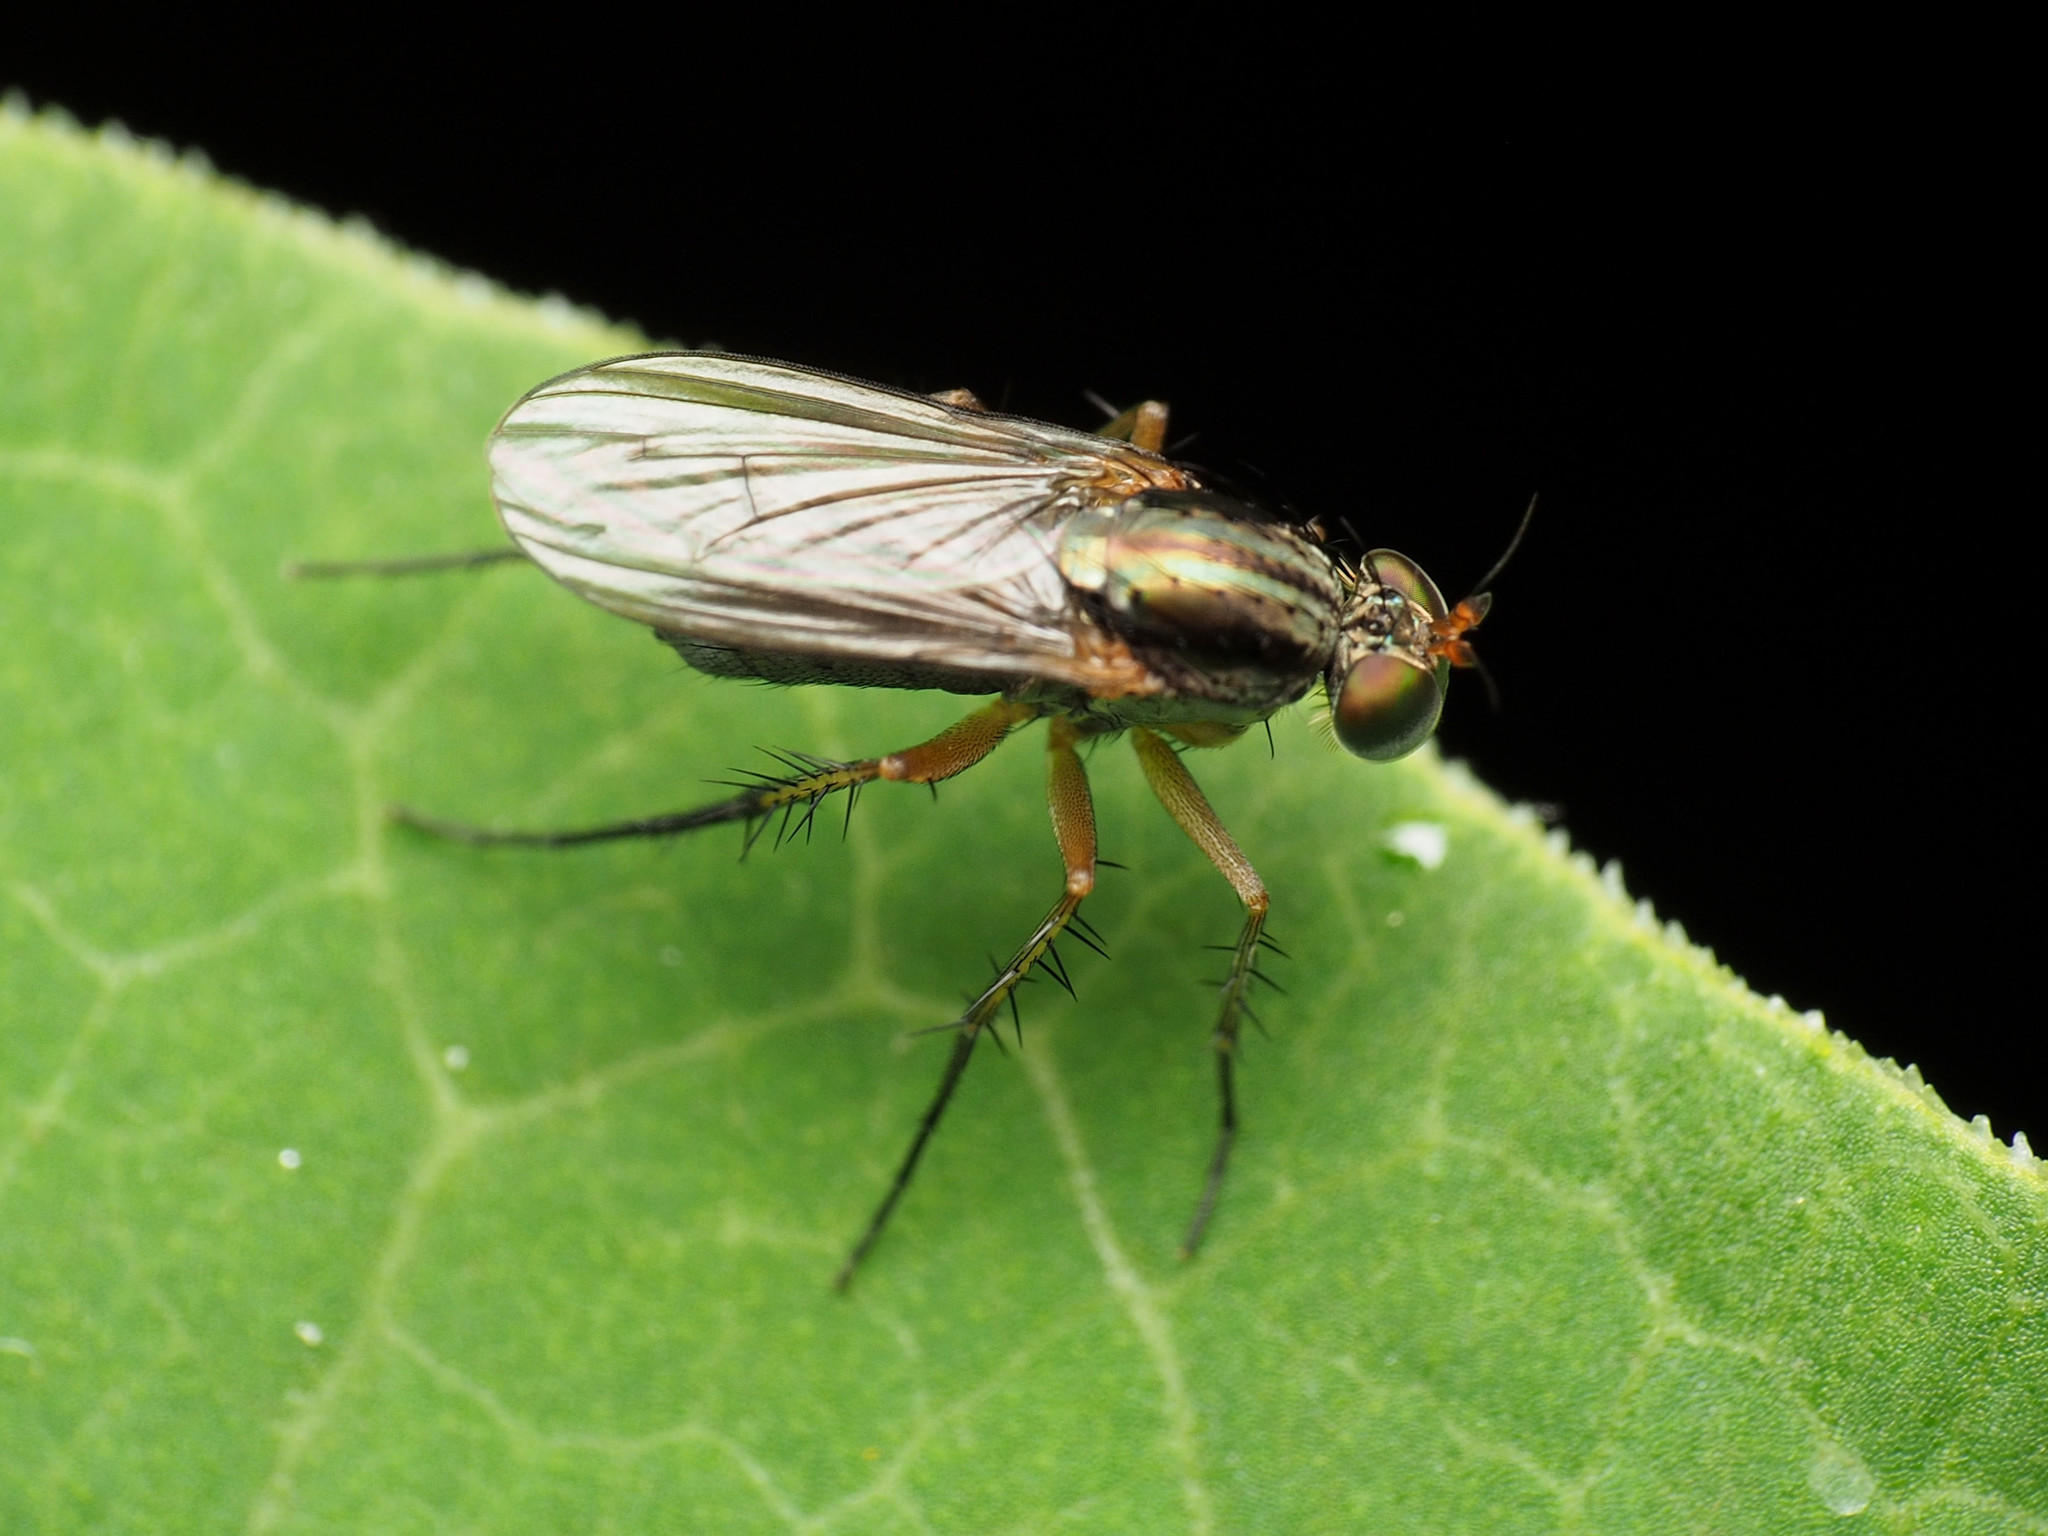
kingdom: Animalia
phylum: Arthropoda
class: Insecta
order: Diptera
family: Dolichopodidae
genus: Dolichopus
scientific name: Dolichopus bifractus
